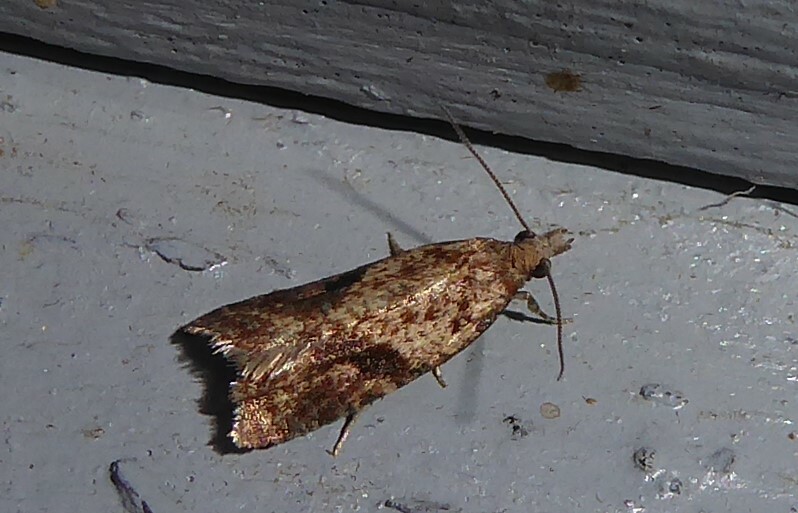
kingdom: Animalia
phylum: Arthropoda
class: Insecta
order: Lepidoptera
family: Tortricidae
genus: Capua
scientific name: Capua semiferana
